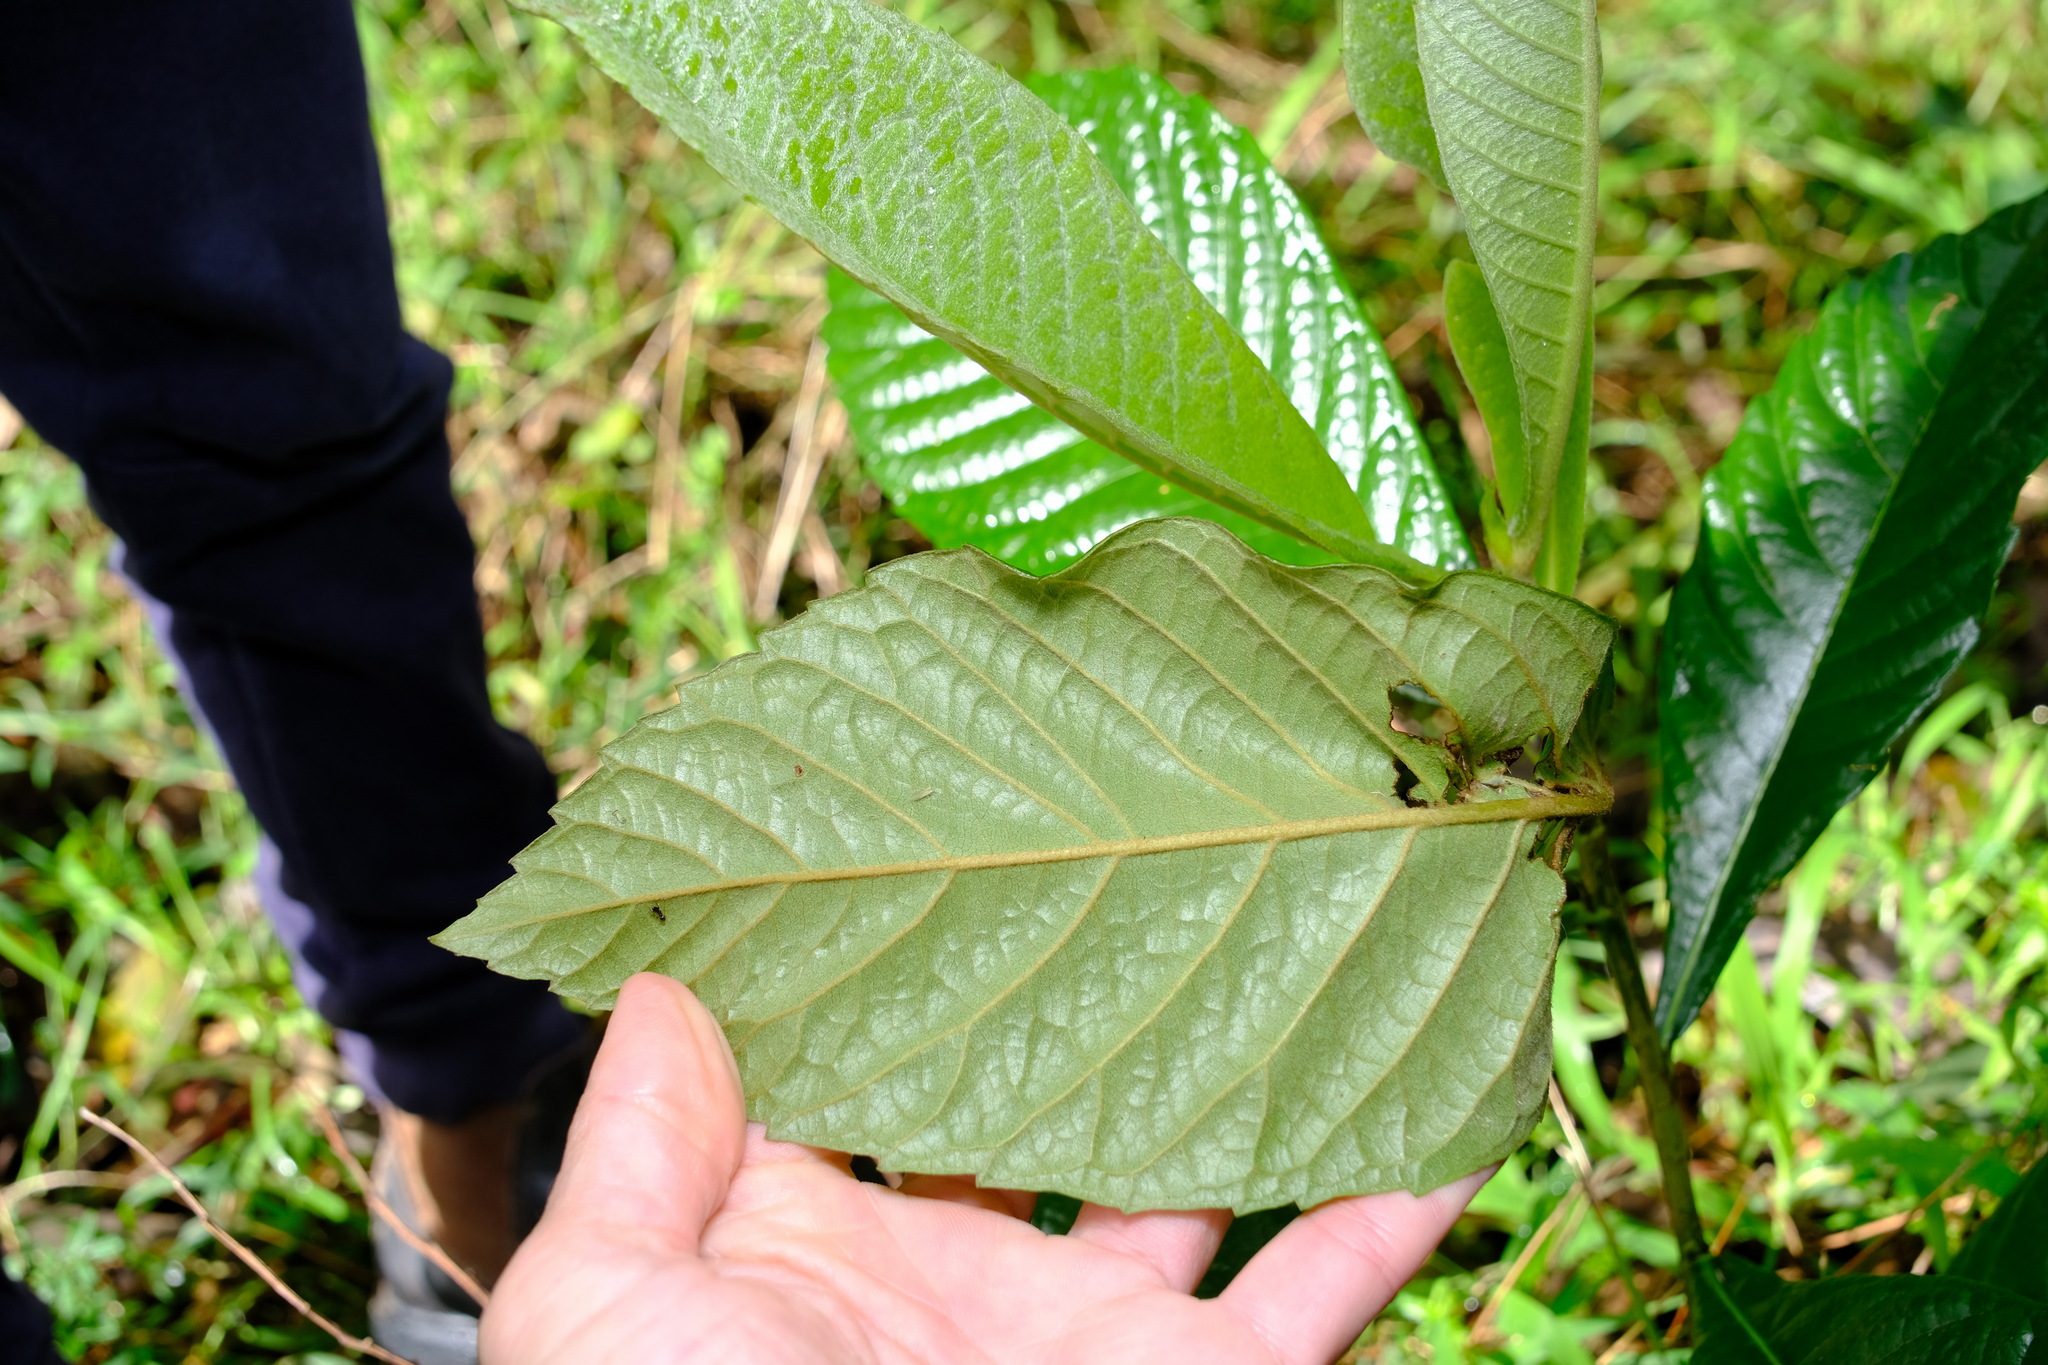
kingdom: Plantae
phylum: Tracheophyta
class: Magnoliopsida
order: Rosales
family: Rosaceae
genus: Rhaphiolepis
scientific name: Rhaphiolepis bibas
